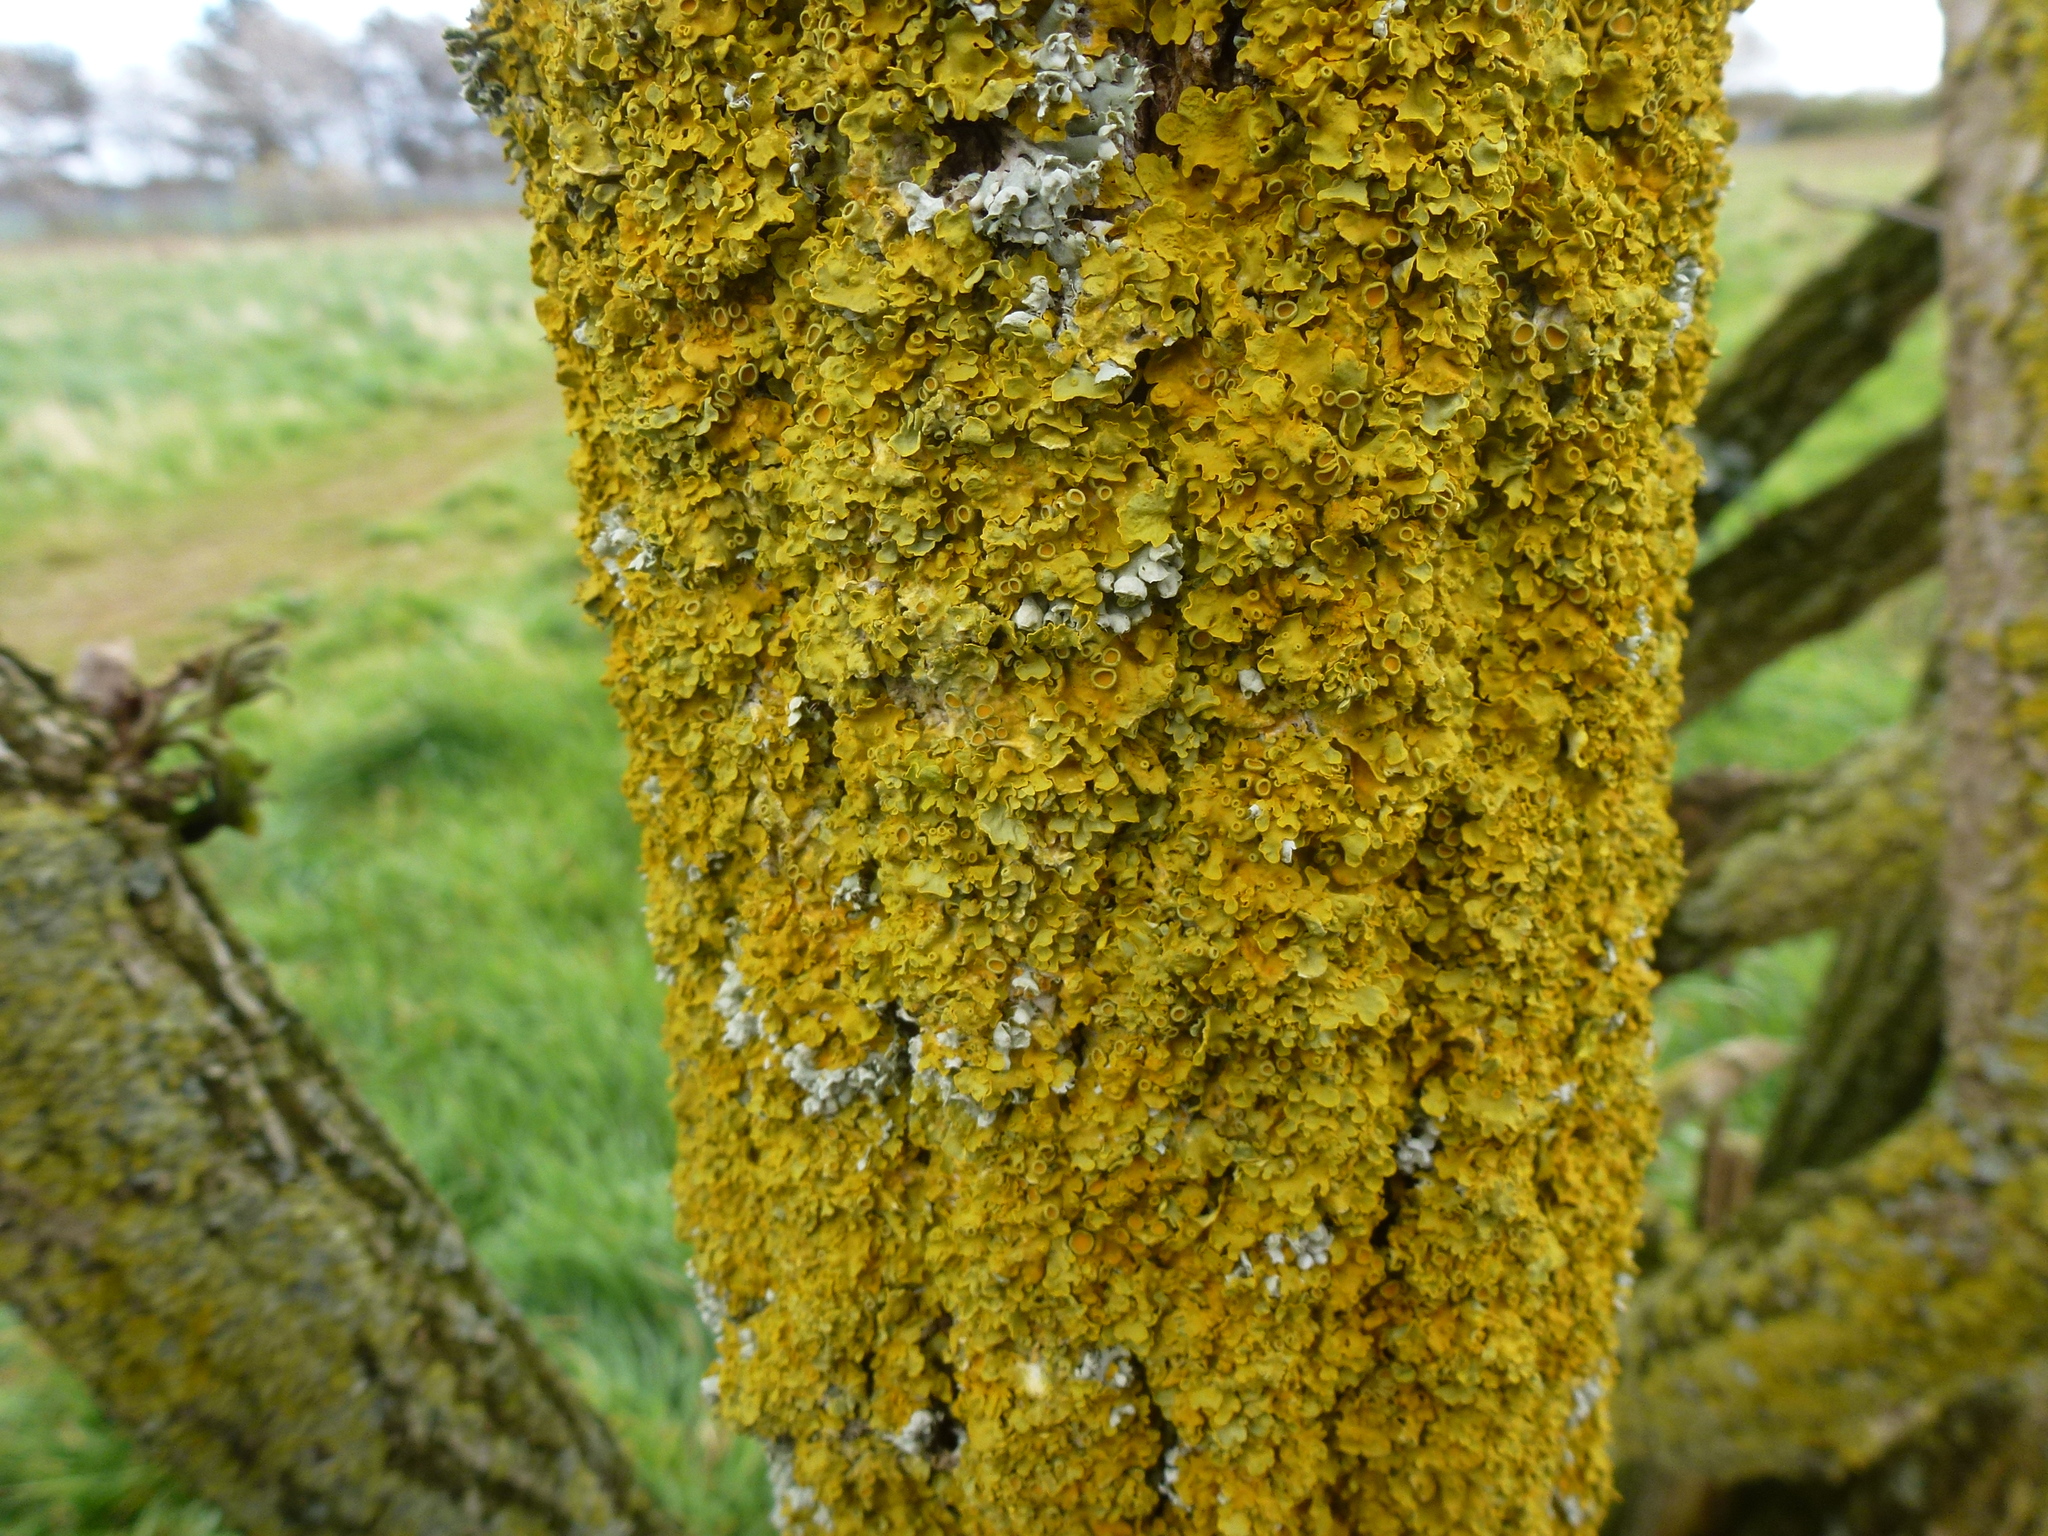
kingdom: Fungi
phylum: Ascomycota
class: Lecanoromycetes
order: Teloschistales
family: Teloschistaceae
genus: Xanthoria
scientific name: Xanthoria parietina
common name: Common orange lichen
